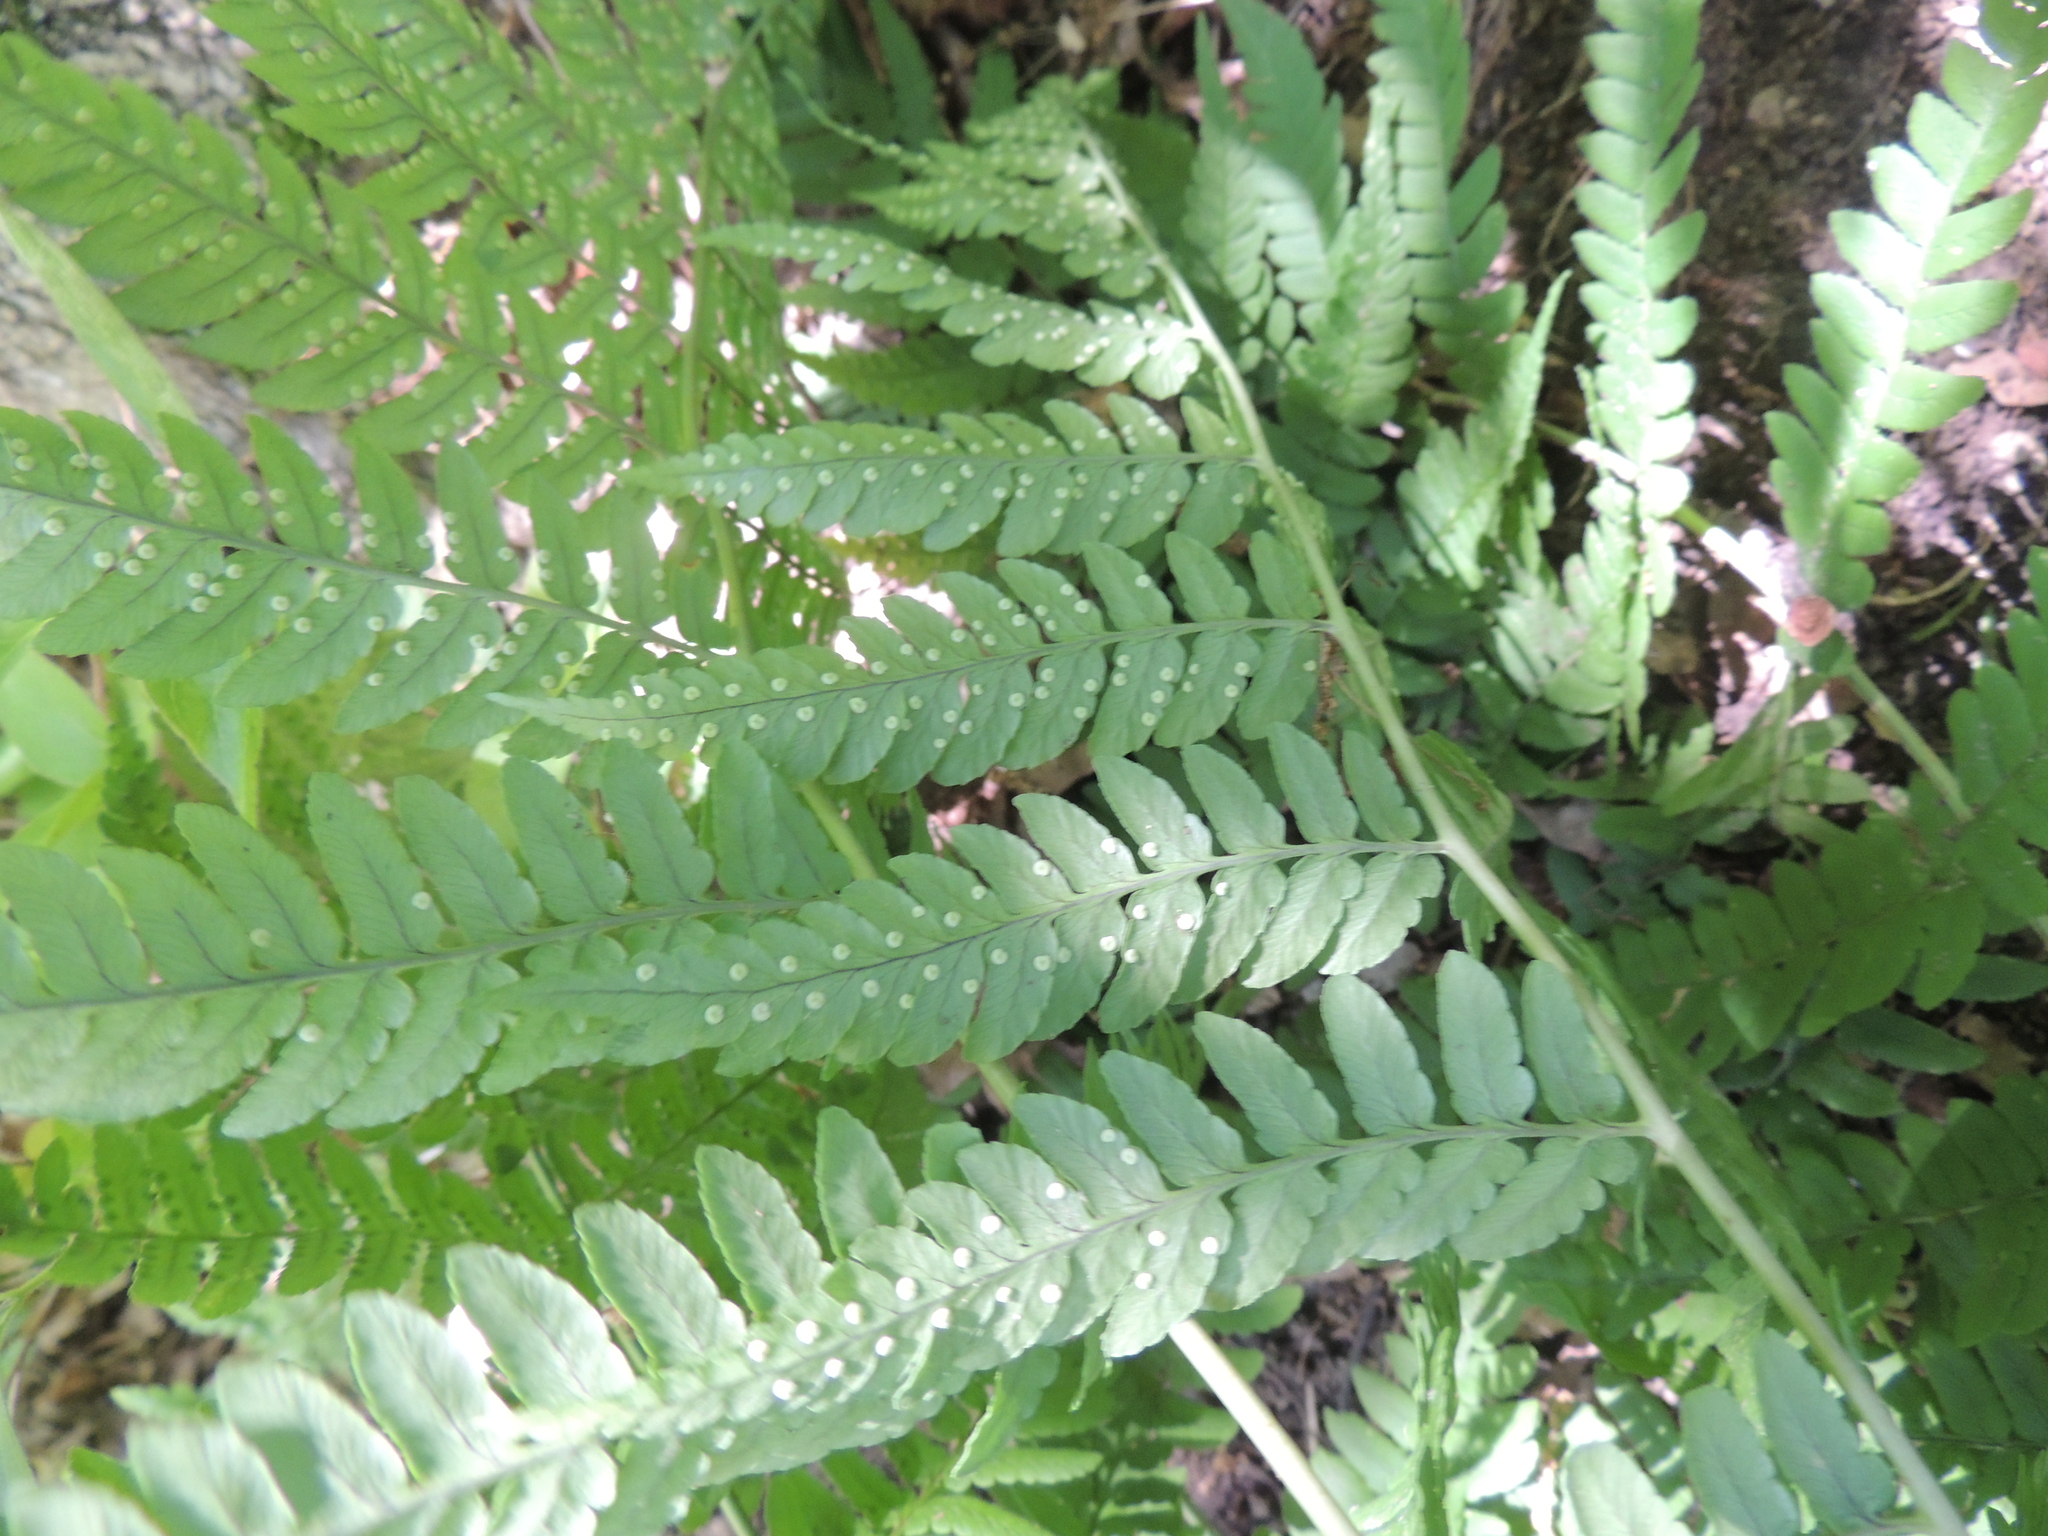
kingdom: Plantae
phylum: Tracheophyta
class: Polypodiopsida
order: Polypodiales
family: Dryopteridaceae
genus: Dryopteris
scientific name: Dryopteris marginalis
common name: Marginal wood fern
